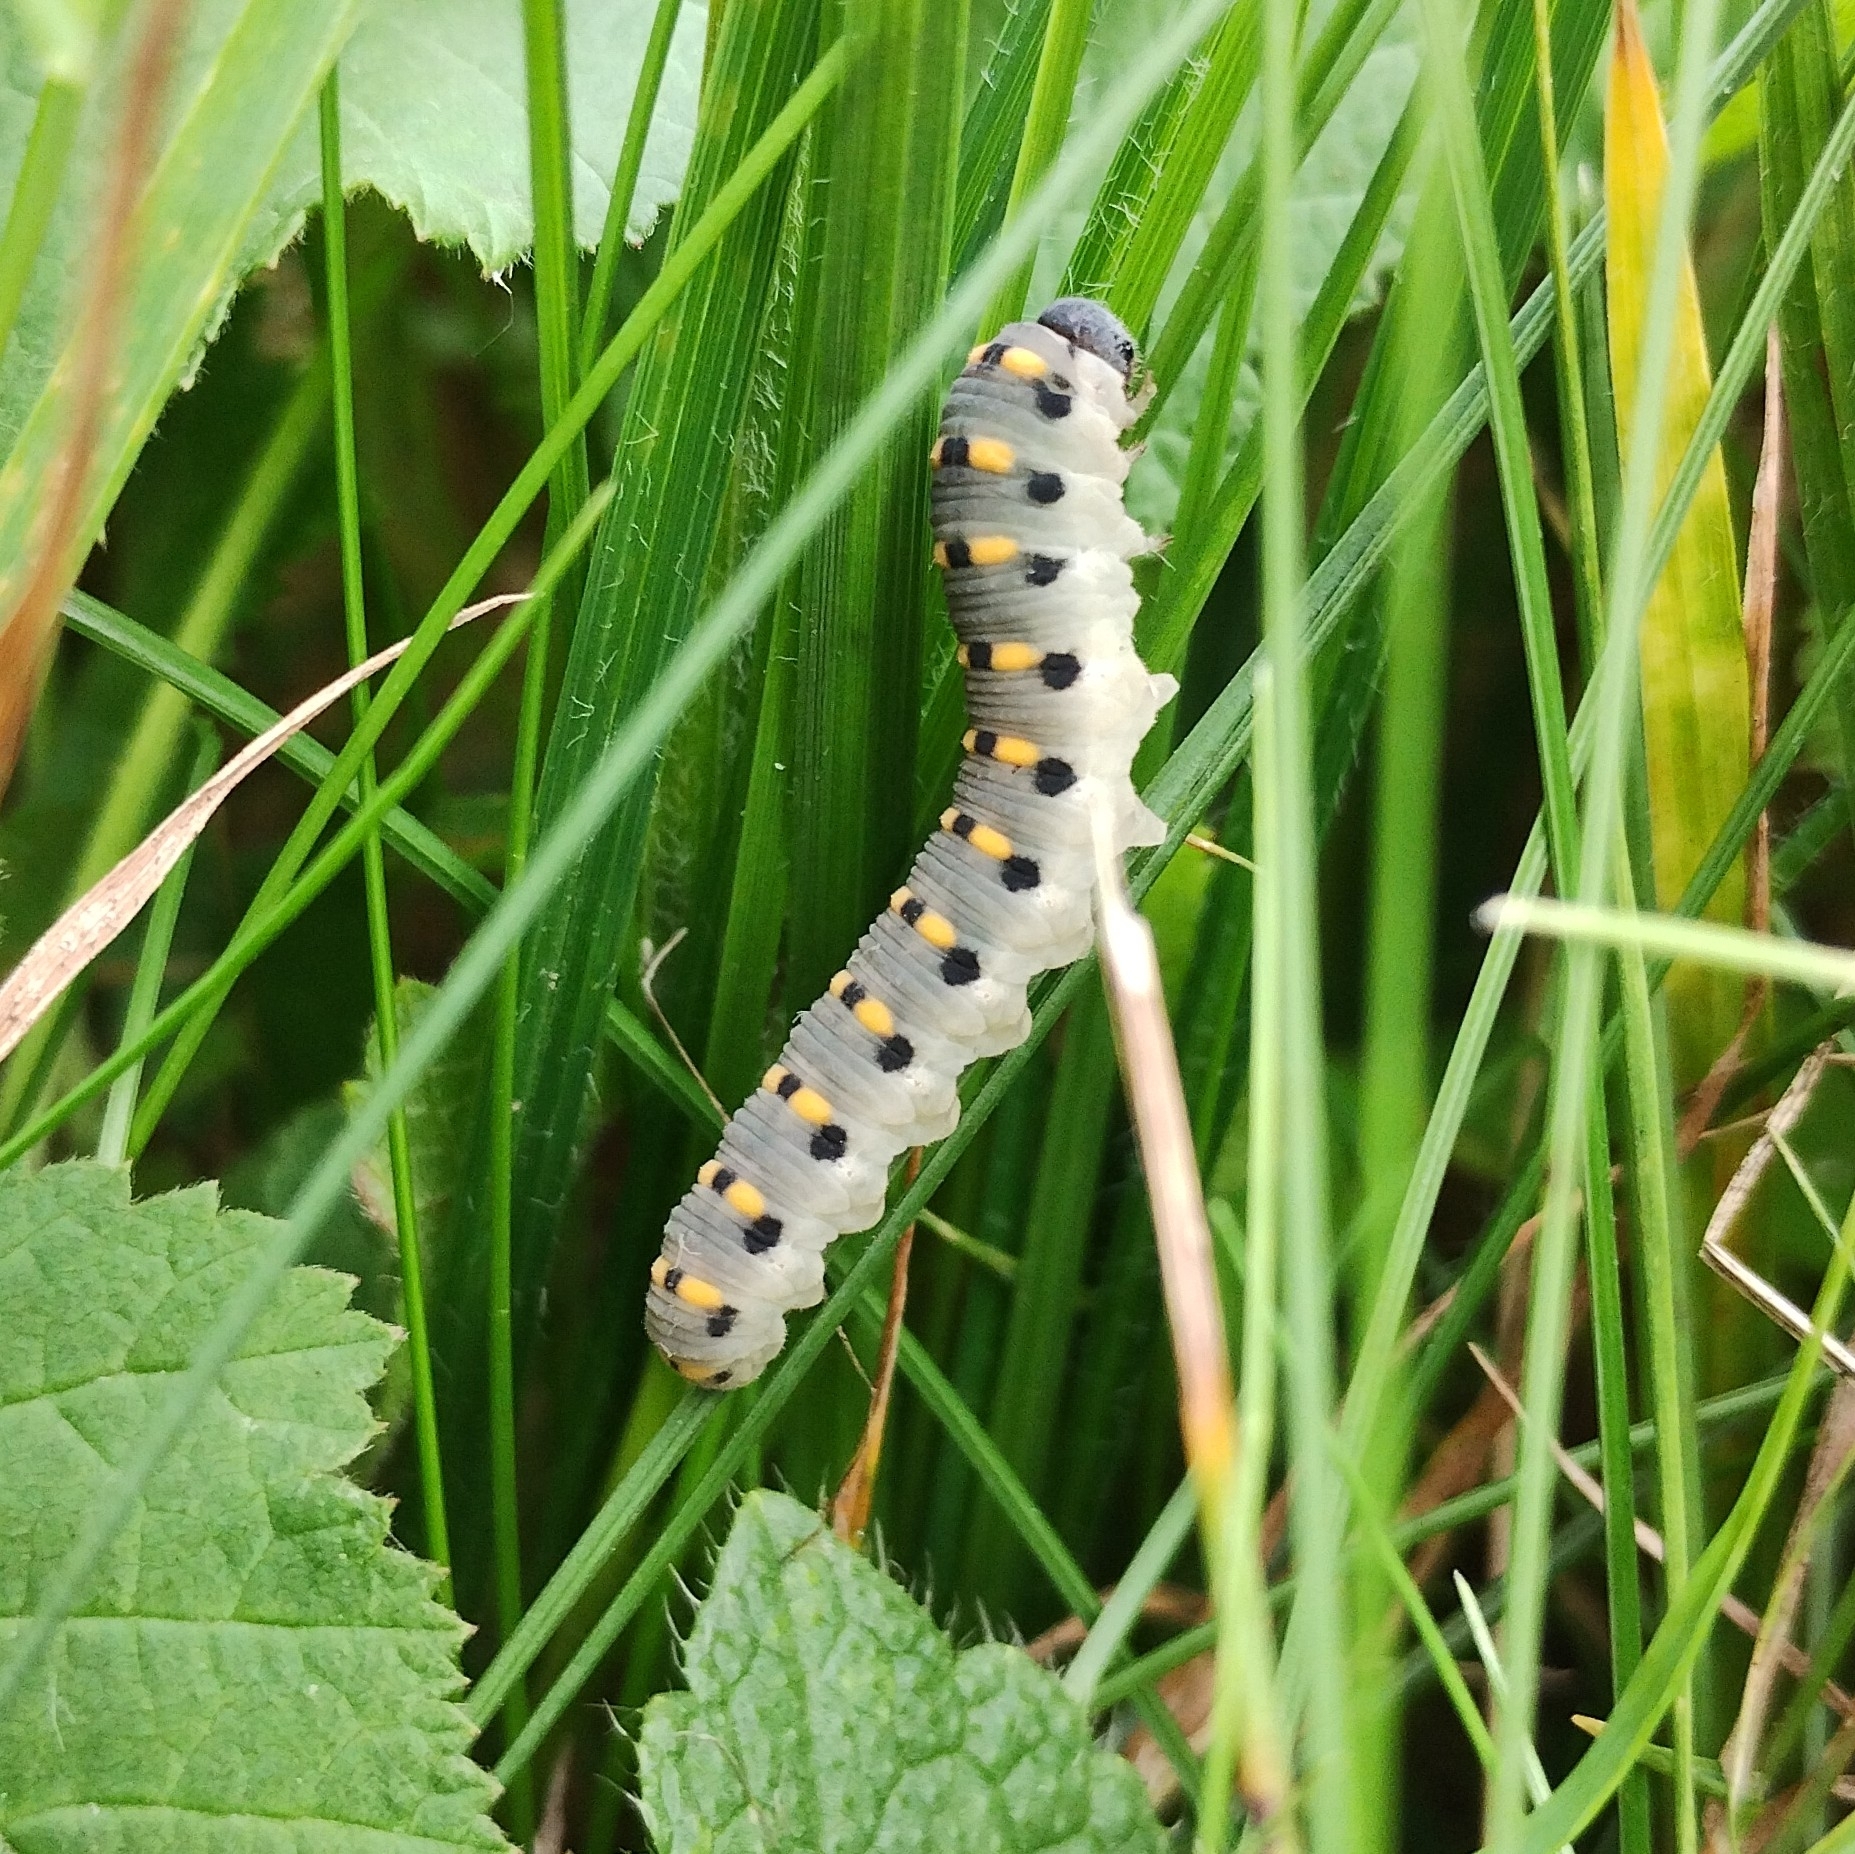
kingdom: Animalia
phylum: Arthropoda
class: Insecta
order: Hymenoptera
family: Cimbicidae
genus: Abia
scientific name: Abia nitens
